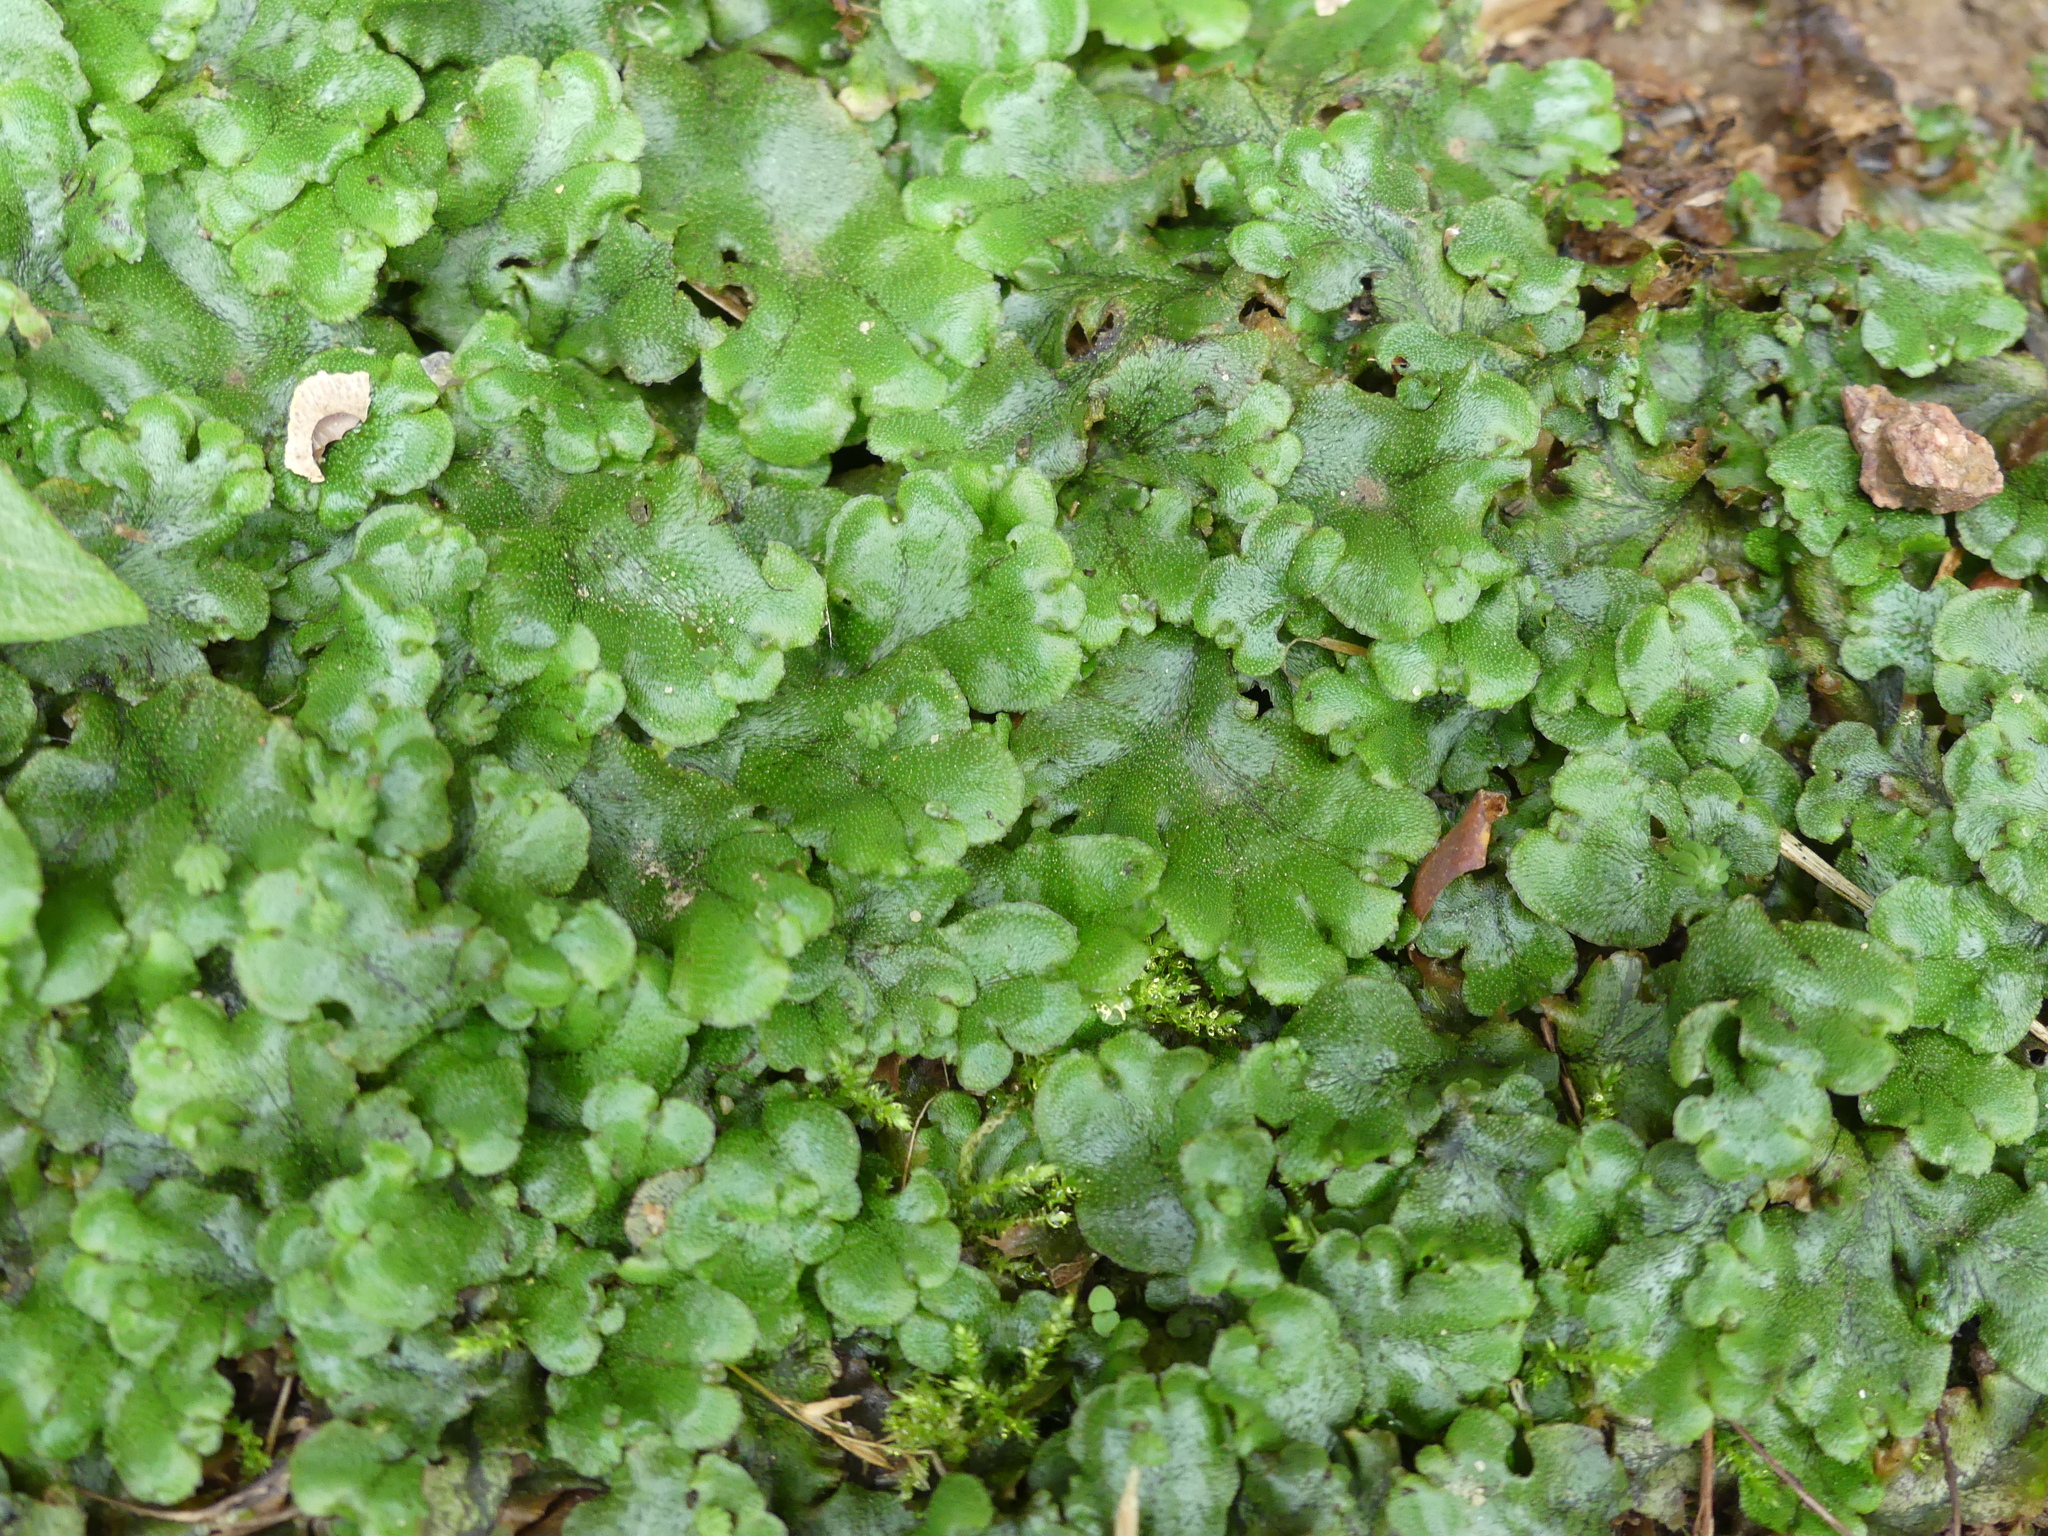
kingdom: Plantae
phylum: Marchantiophyta
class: Marchantiopsida
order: Marchantiales
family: Marchantiaceae
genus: Marchantia
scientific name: Marchantia polymorpha
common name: Common liverwort
